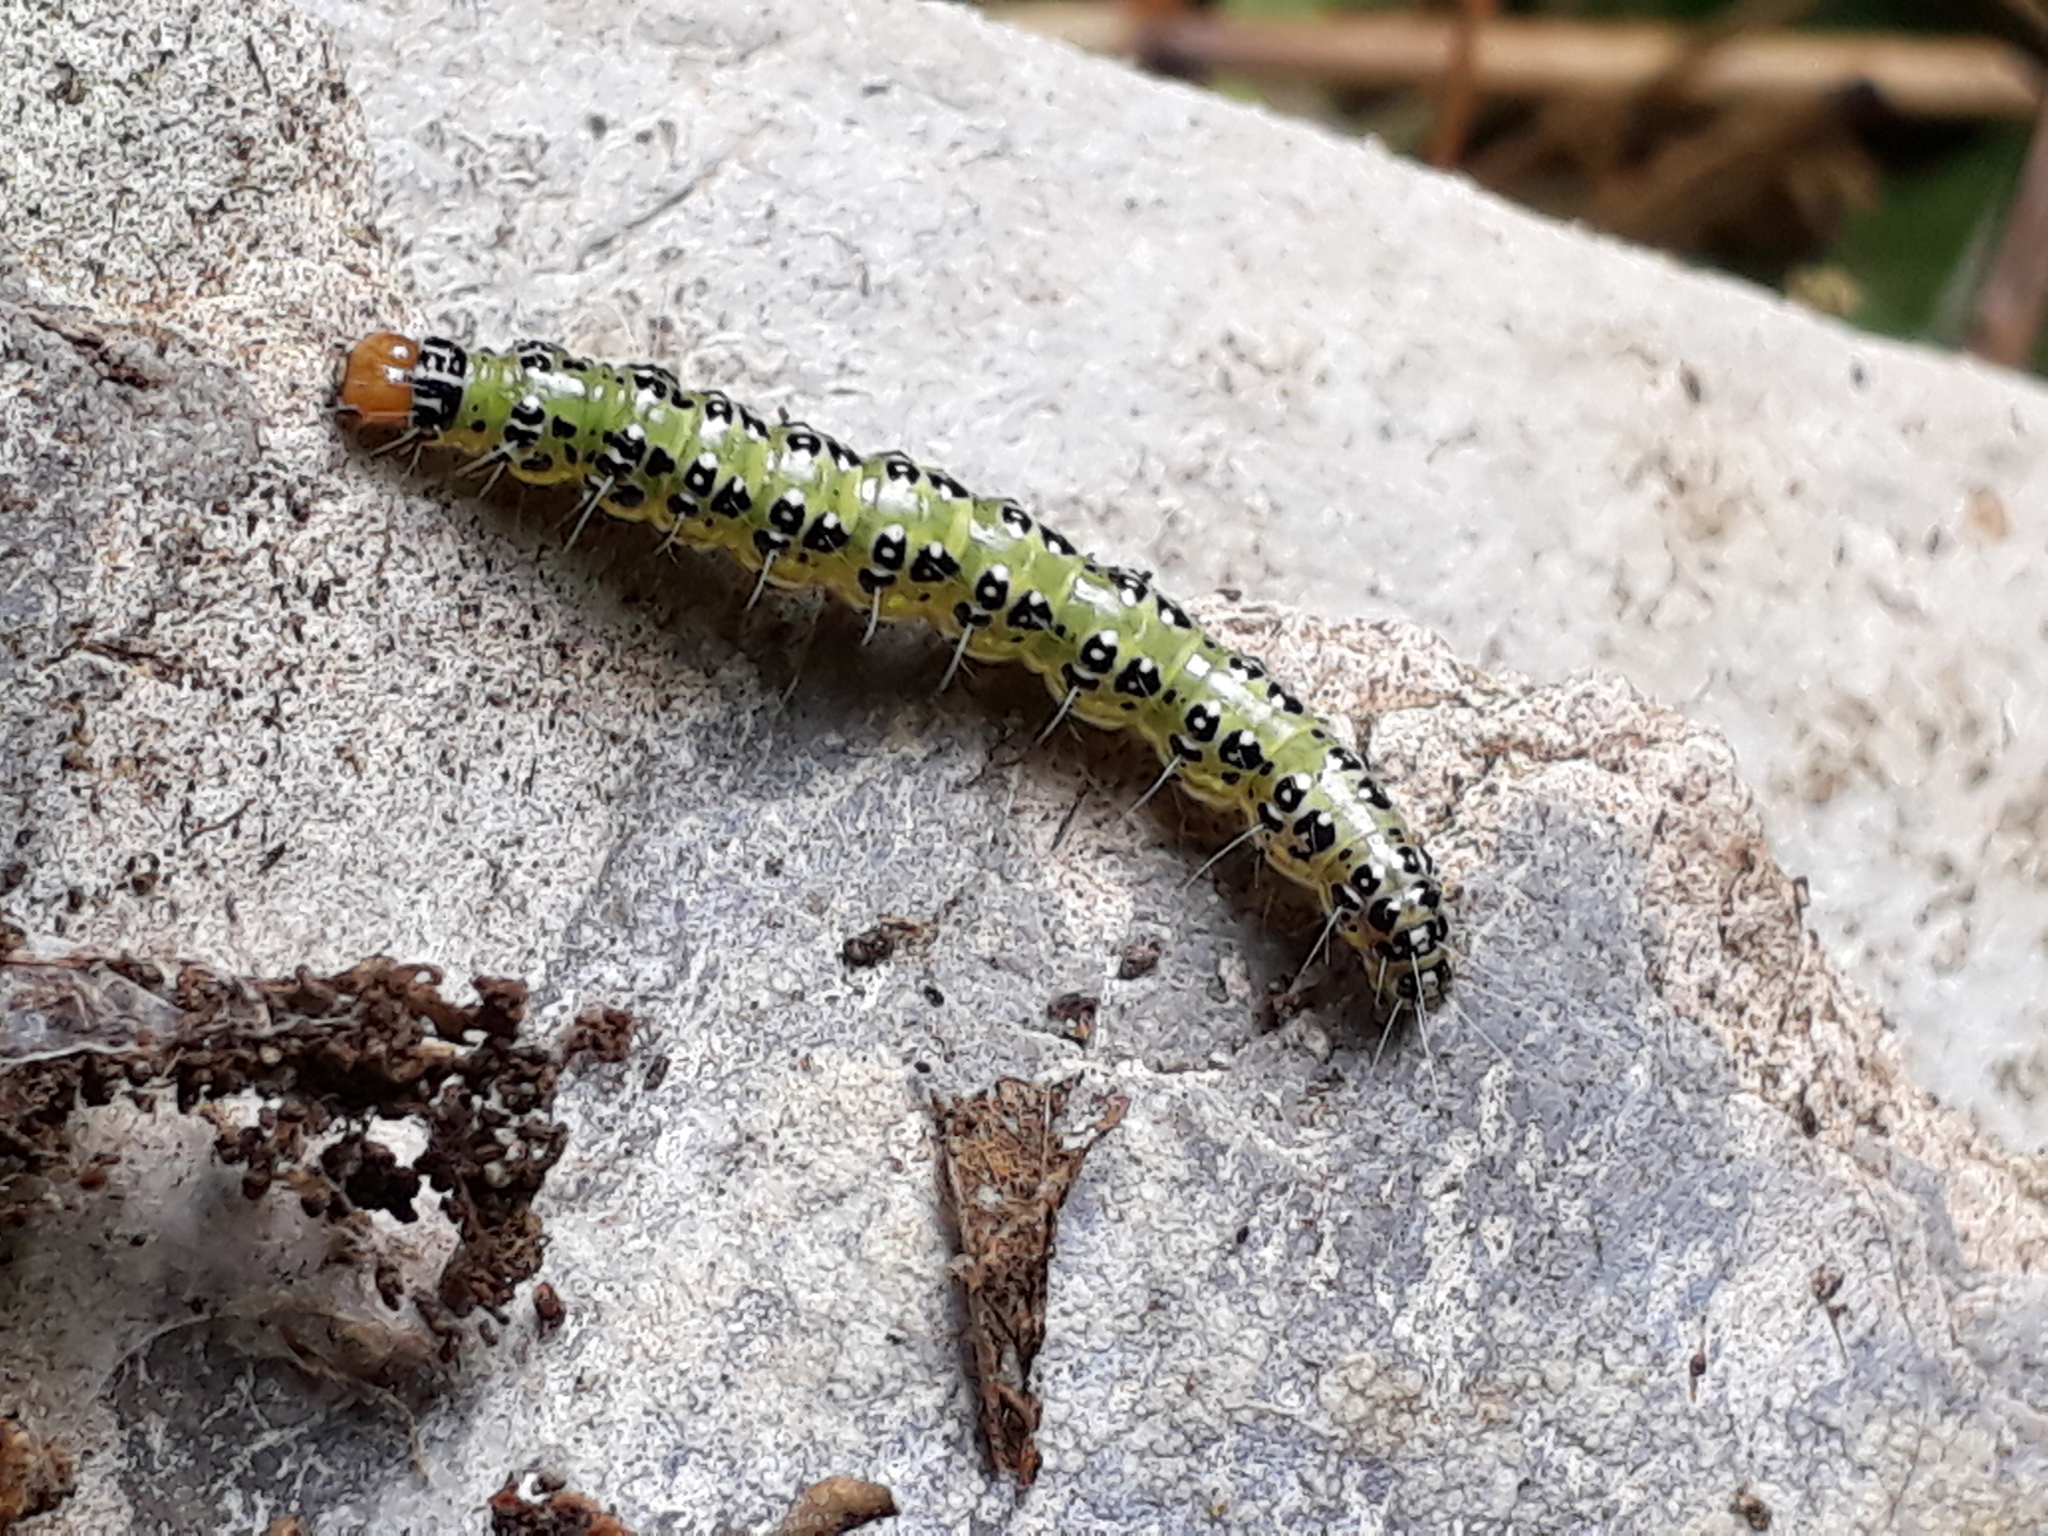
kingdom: Animalia
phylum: Arthropoda
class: Insecta
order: Lepidoptera
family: Crambidae
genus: Uresiphita
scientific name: Uresiphita
